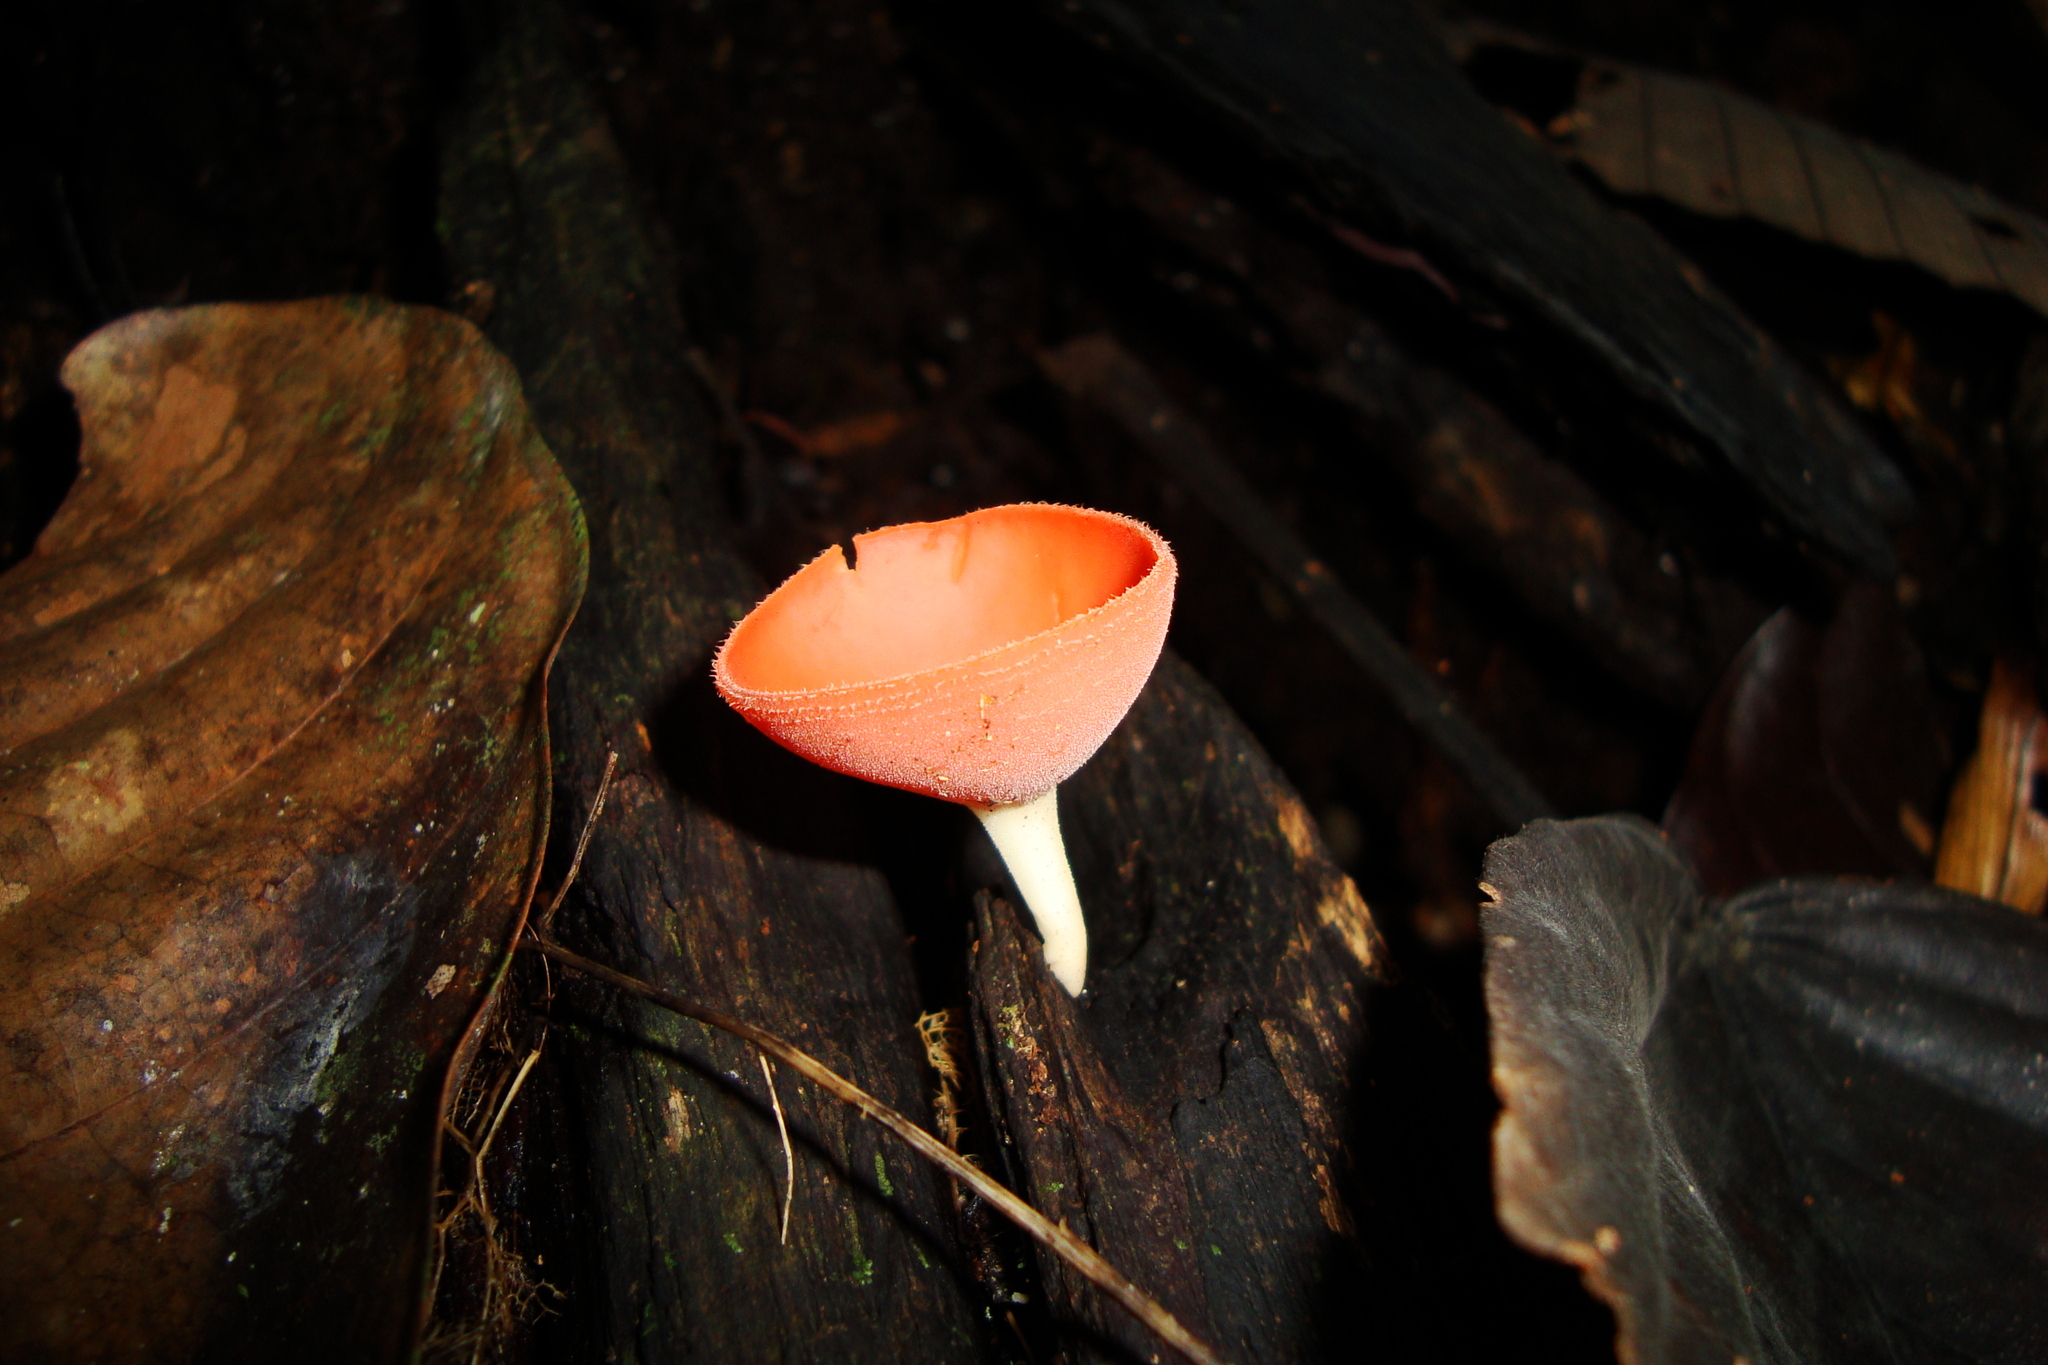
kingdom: Fungi
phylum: Ascomycota
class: Pezizomycetes
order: Pezizales
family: Sarcoscyphaceae
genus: Cookeina
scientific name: Cookeina speciosa
